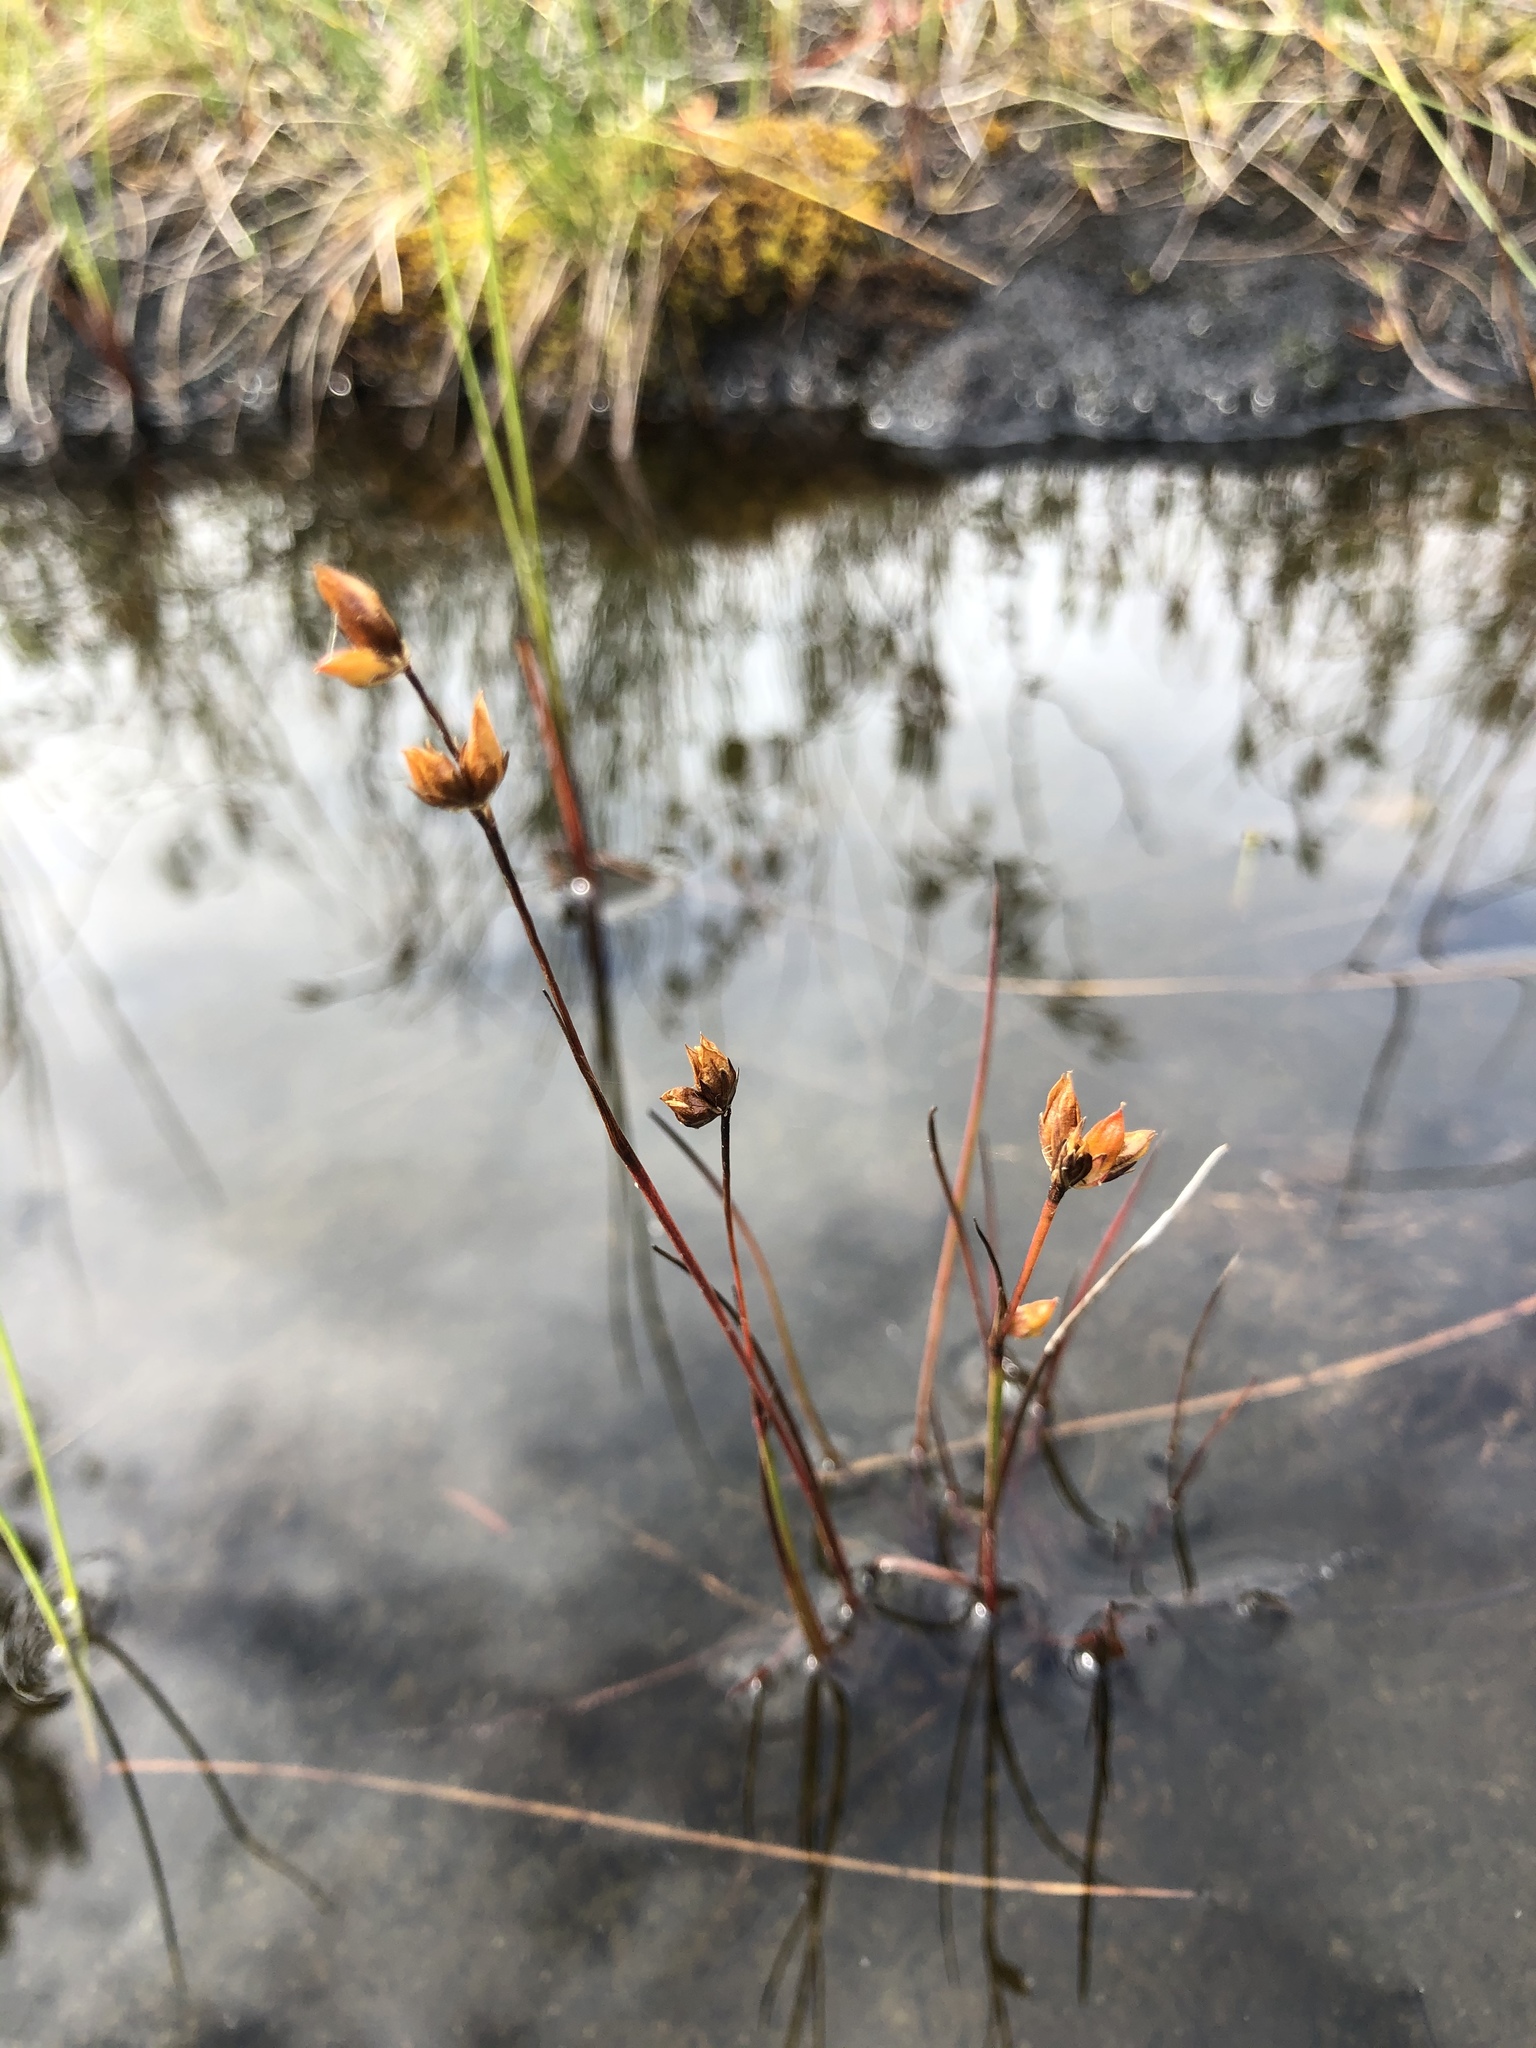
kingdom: Plantae
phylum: Tracheophyta
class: Liliopsida
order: Poales
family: Juncaceae
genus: Juncus
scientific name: Juncus stygius
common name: Bog rush
